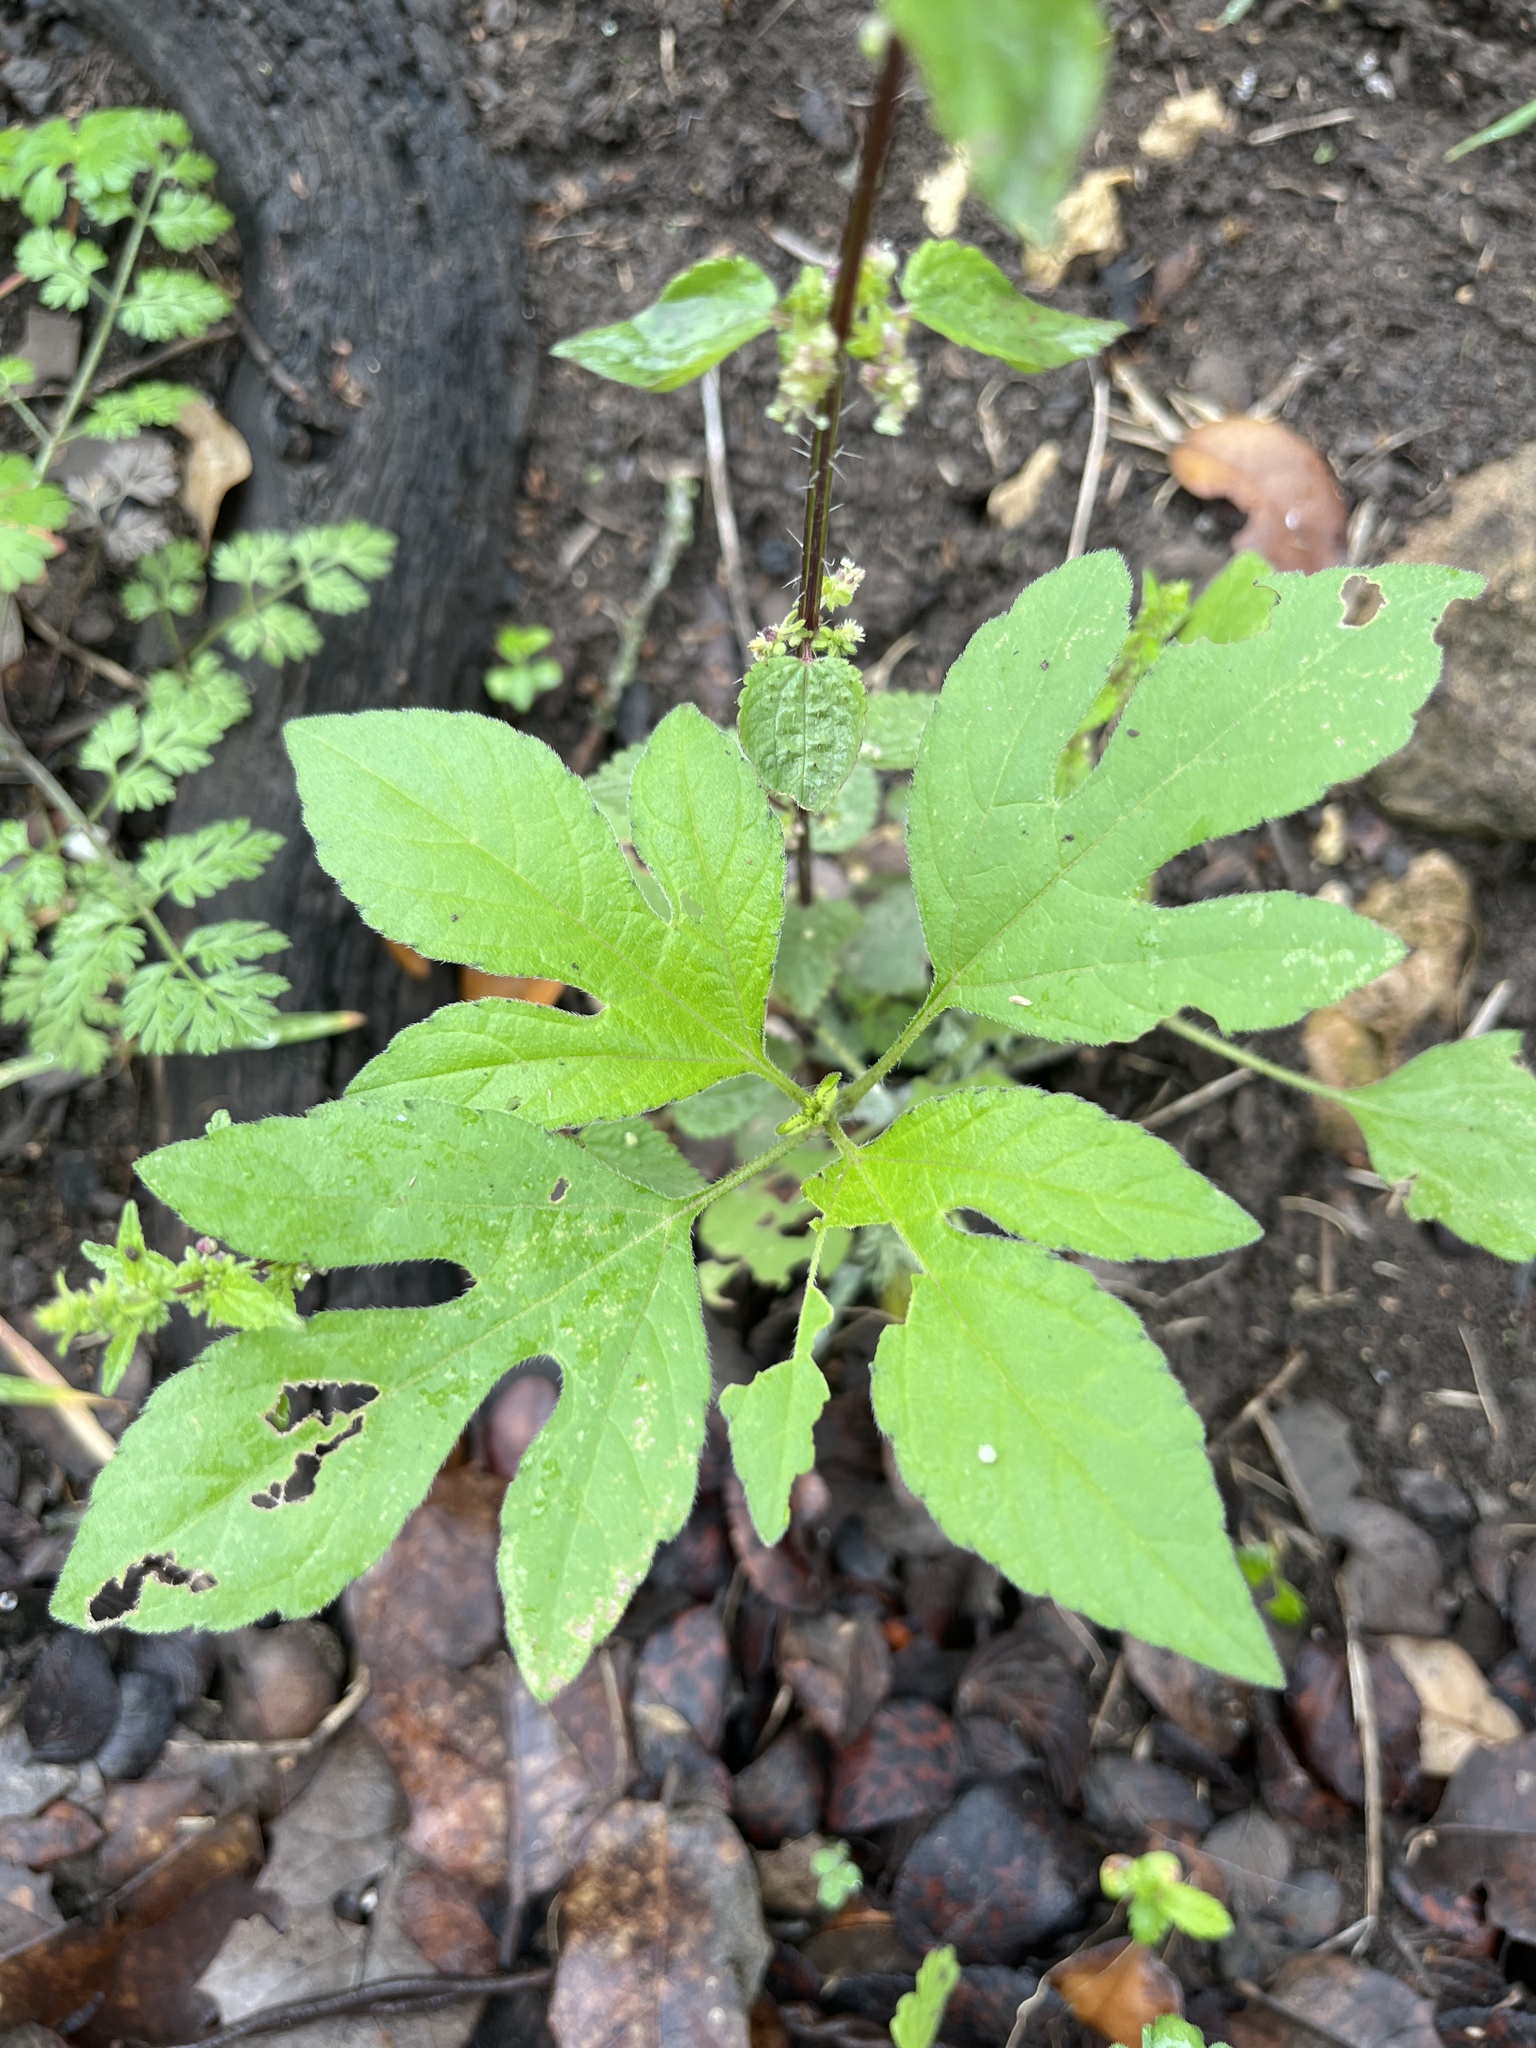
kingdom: Plantae
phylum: Tracheophyta
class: Magnoliopsida
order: Asterales
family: Asteraceae
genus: Ambrosia
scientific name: Ambrosia trifida
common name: Giant ragweed
